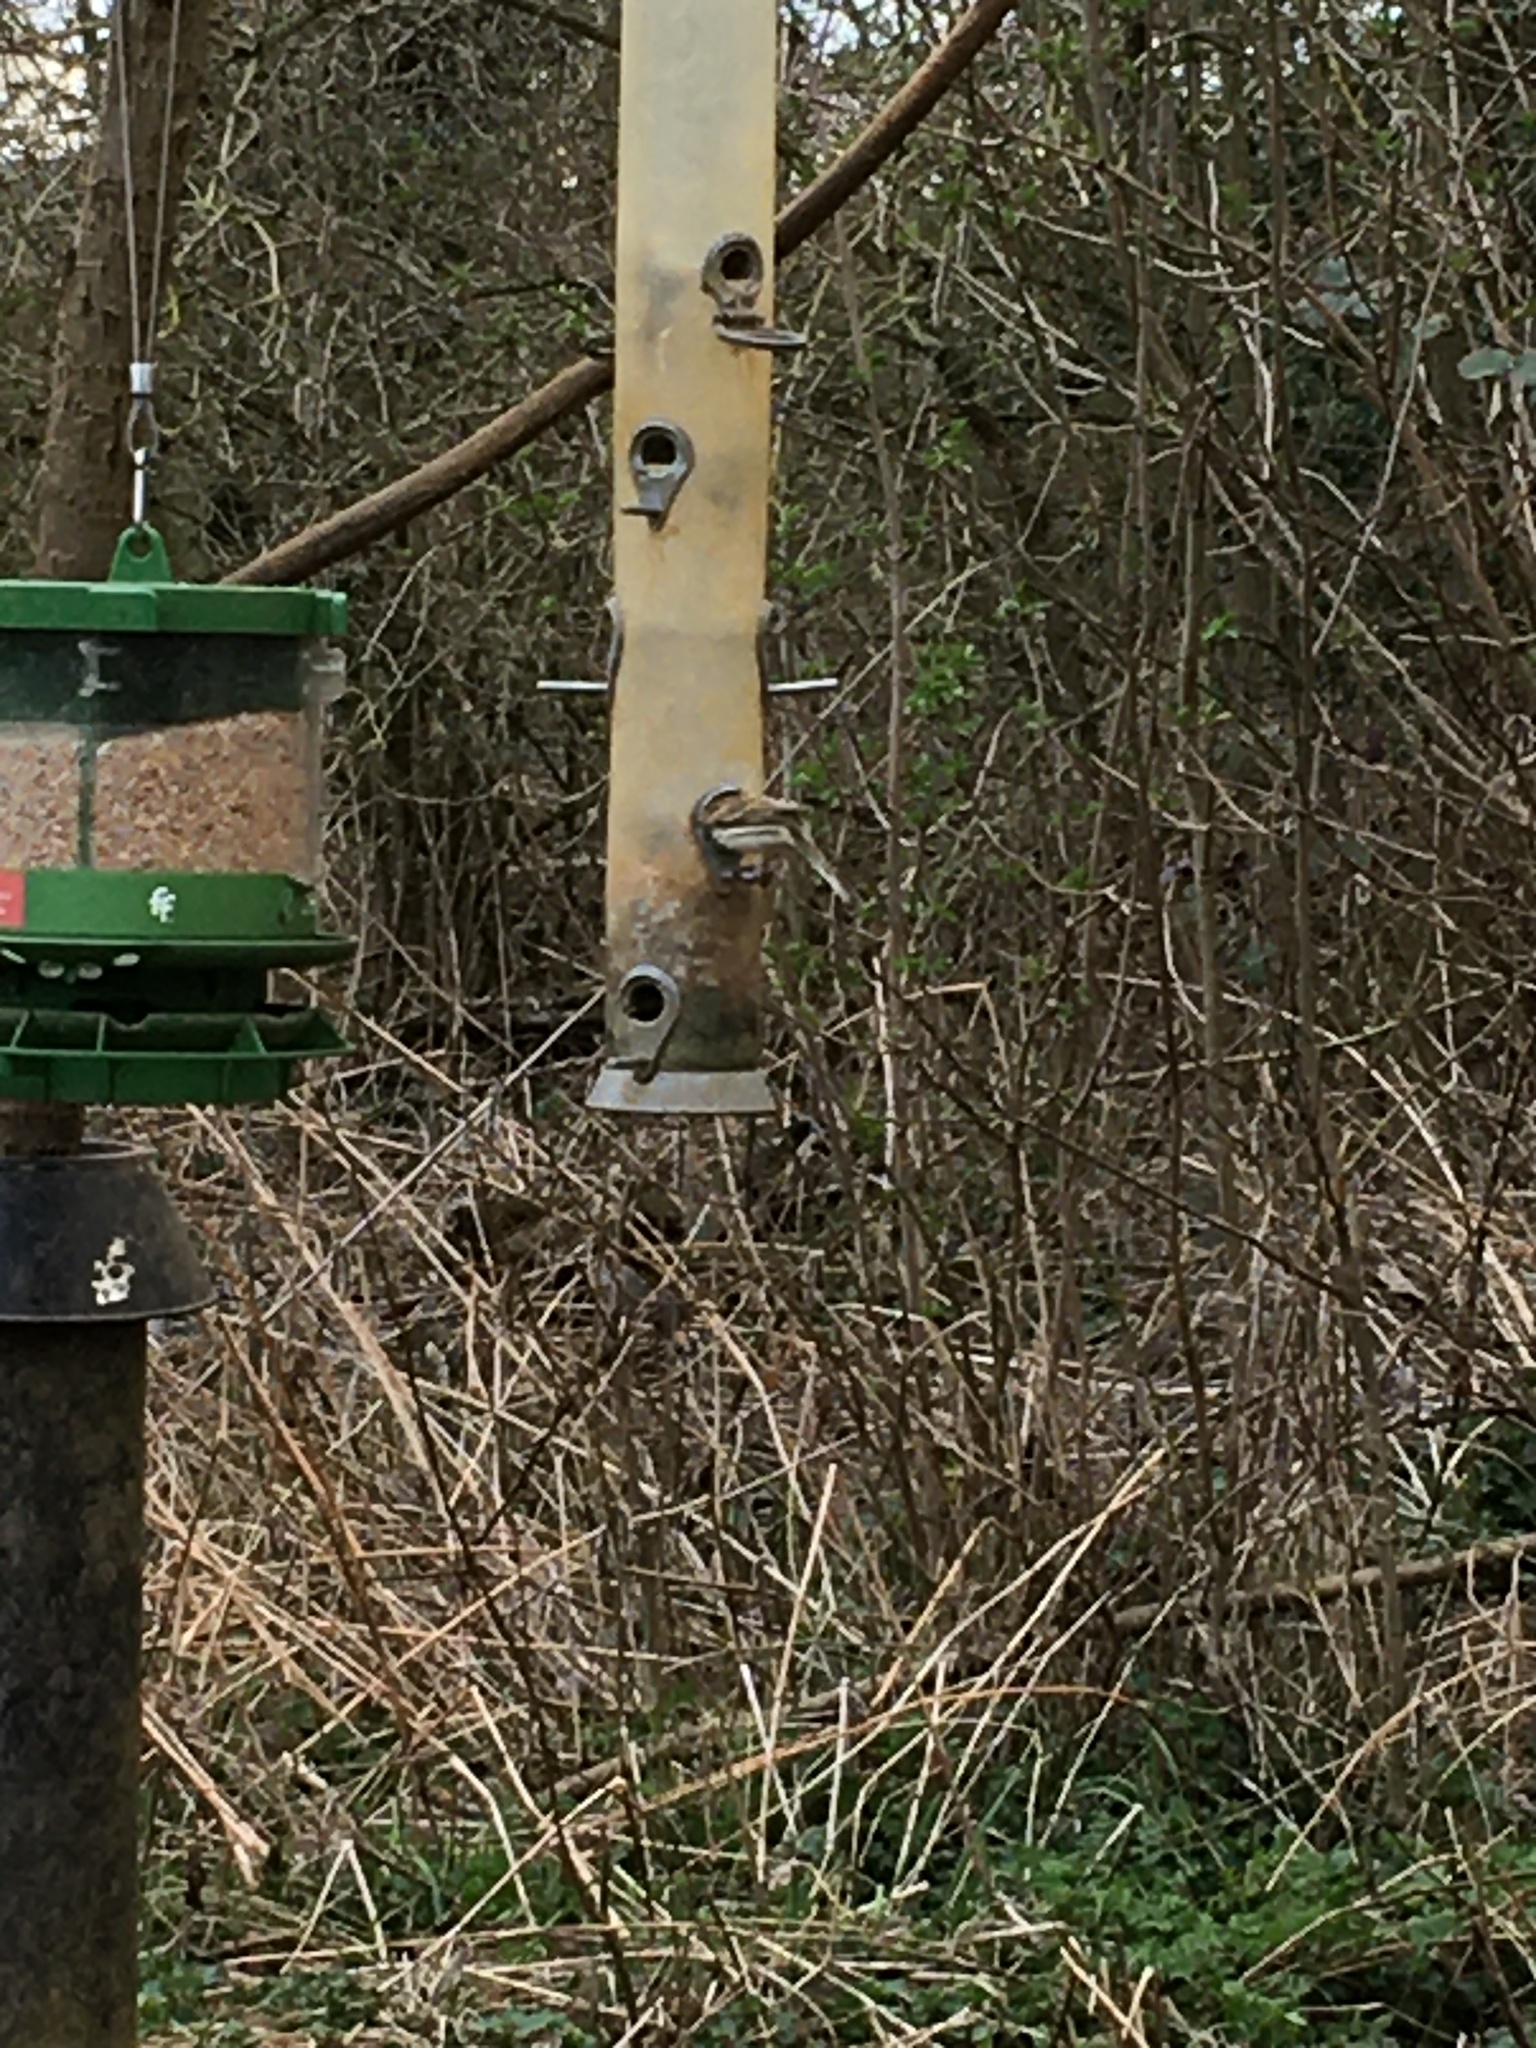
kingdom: Animalia
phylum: Chordata
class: Aves
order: Passeriformes
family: Emberizidae
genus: Emberiza
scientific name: Emberiza schoeniclus
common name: Reed bunting
